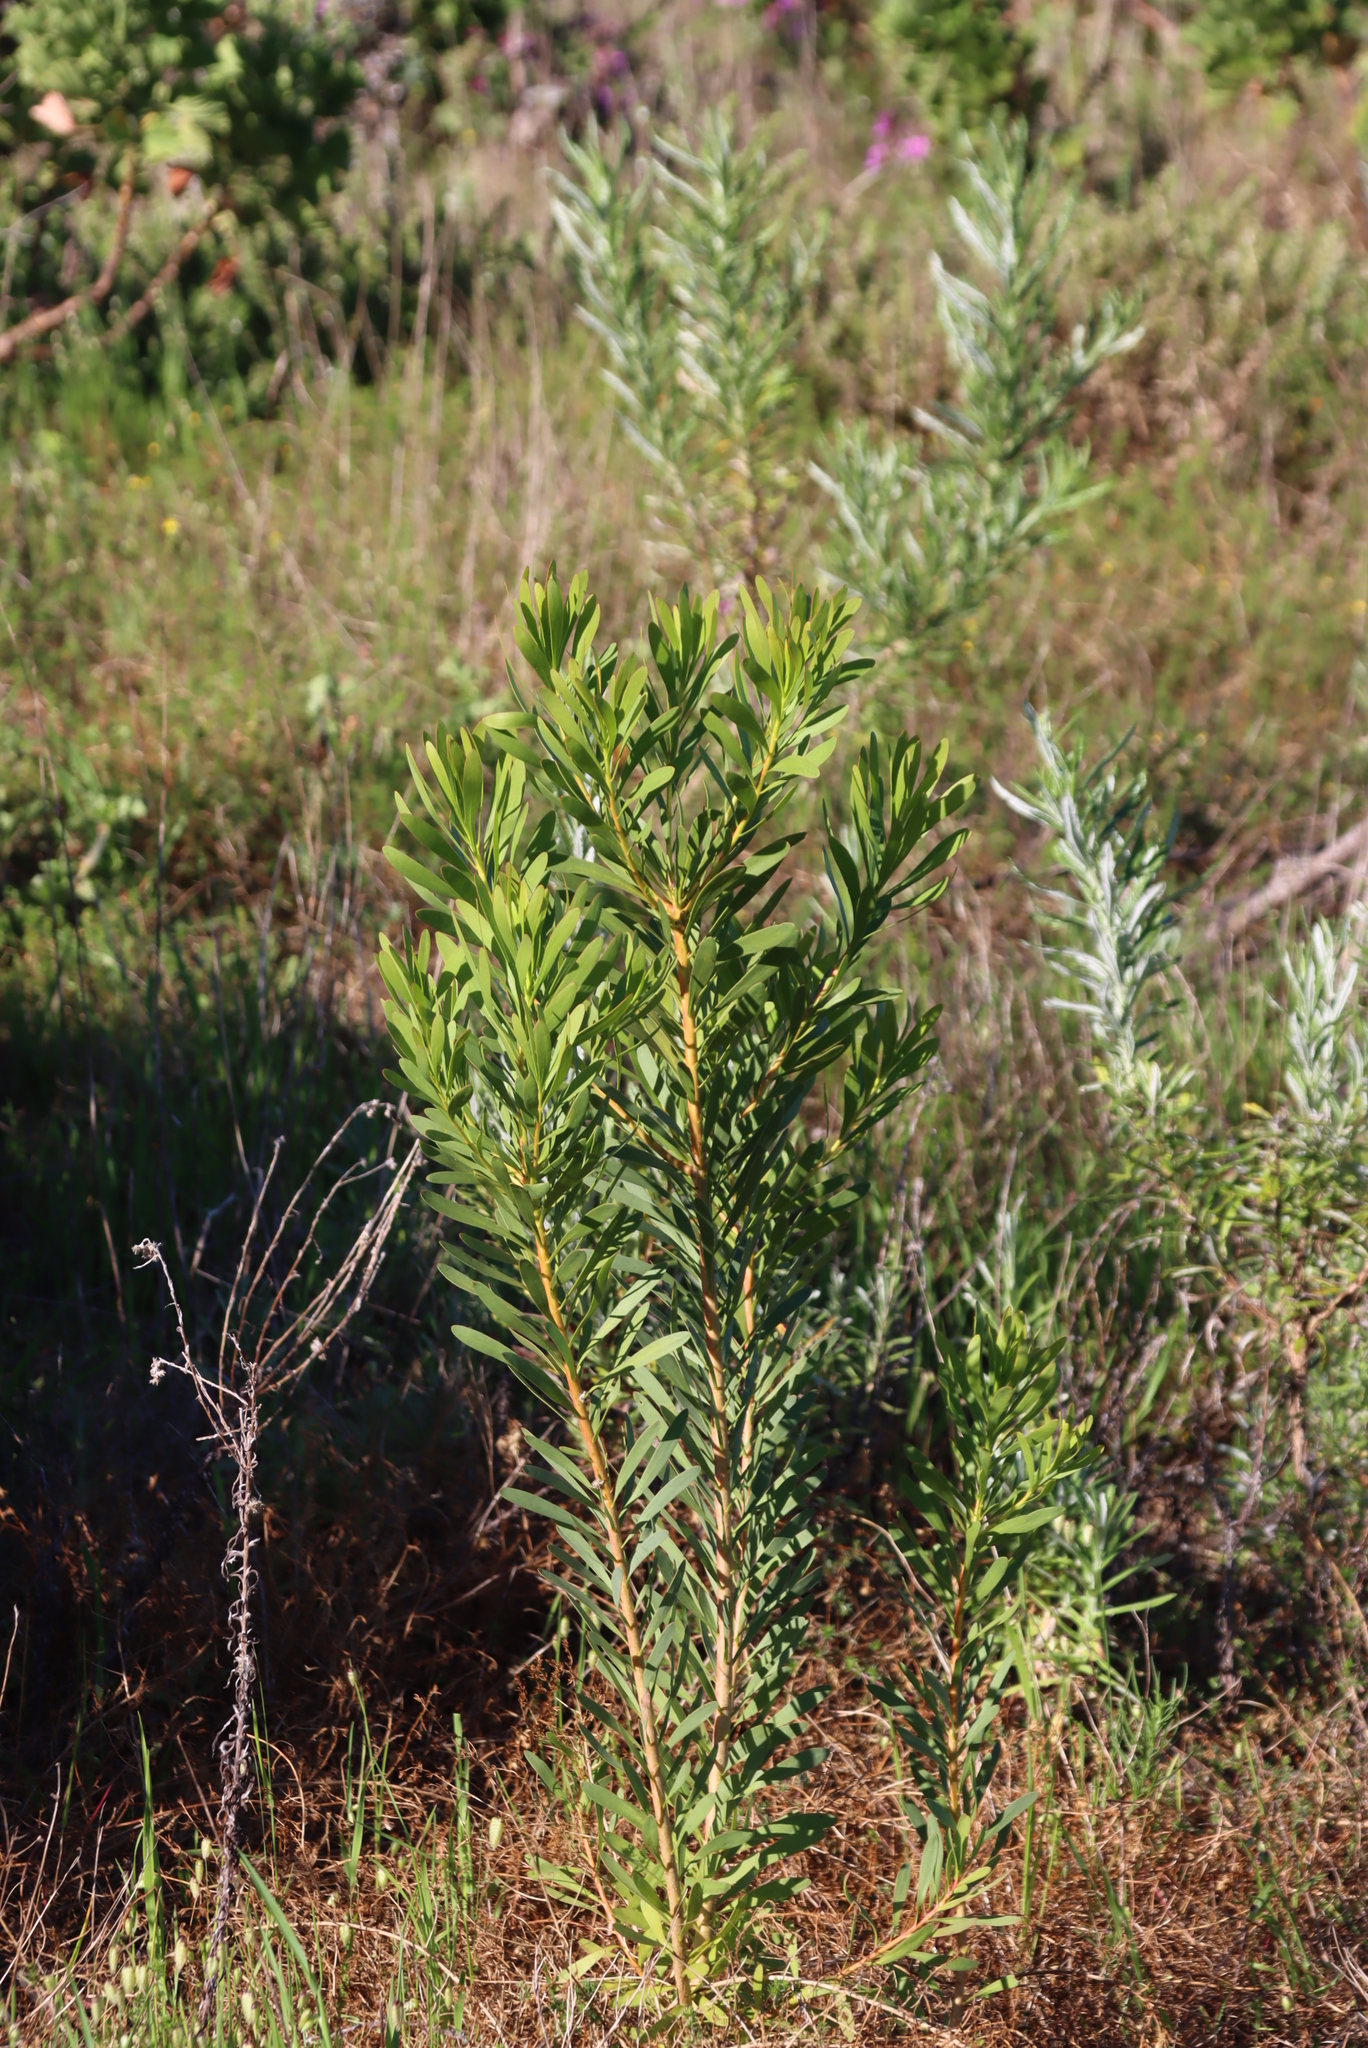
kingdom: Plantae
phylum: Tracheophyta
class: Magnoliopsida
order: Proteales
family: Proteaceae
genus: Protea
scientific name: Protea repens
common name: Sugarbush
